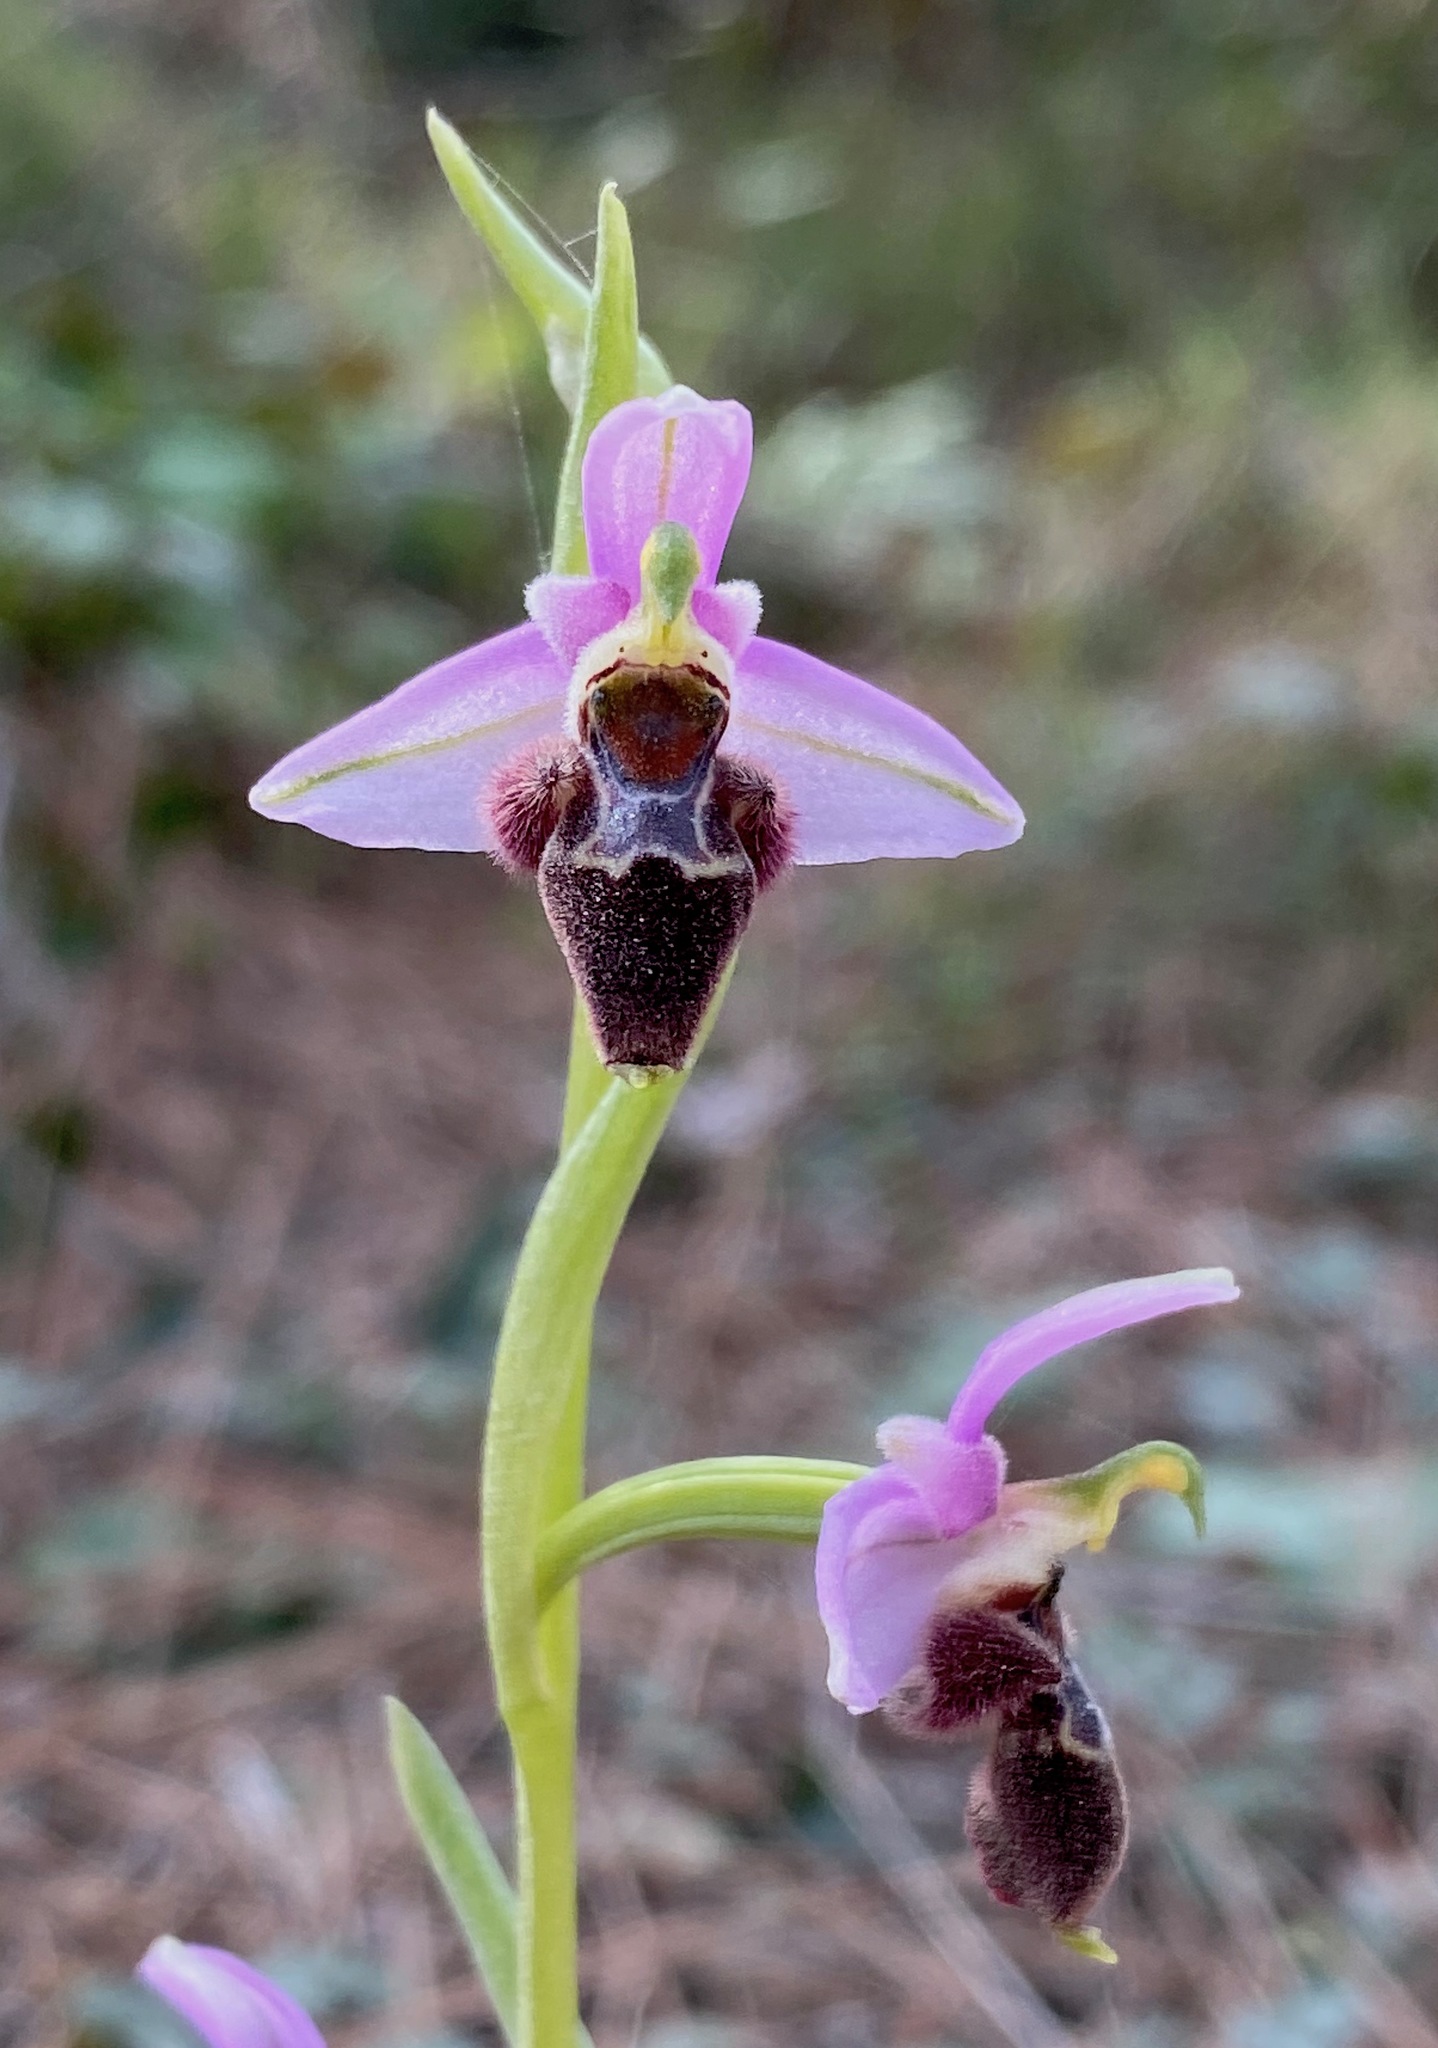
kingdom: Plantae
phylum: Tracheophyta
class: Liliopsida
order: Asparagales
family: Orchidaceae
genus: Ophrys
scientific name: Ophrys umbilicata
